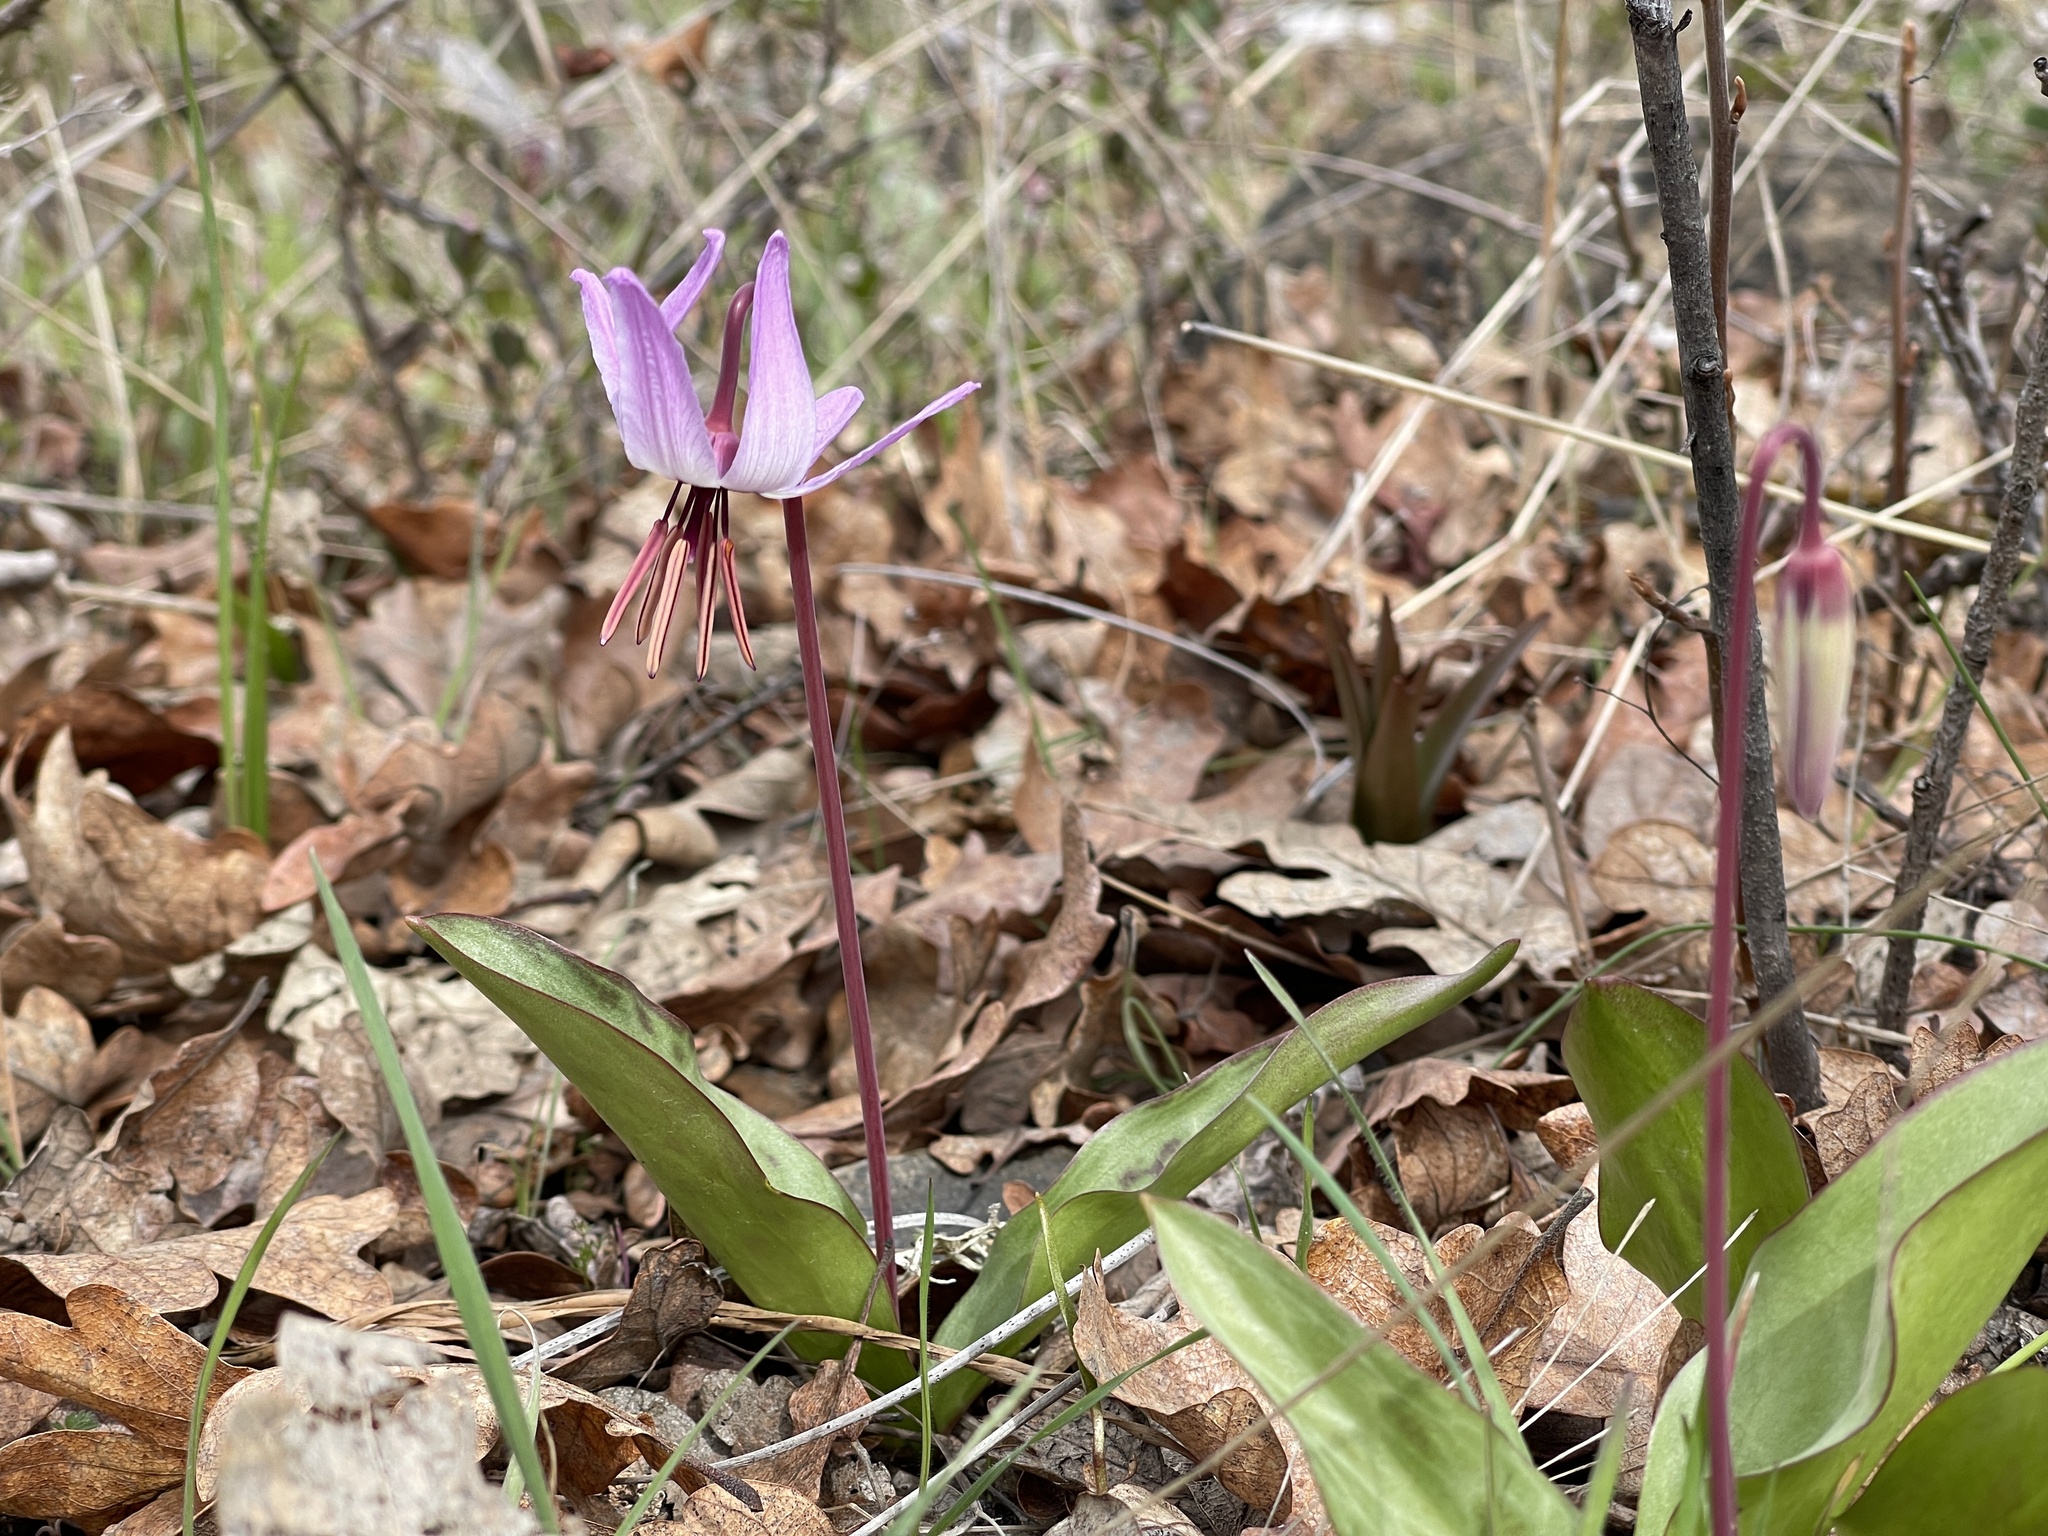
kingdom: Plantae
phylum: Tracheophyta
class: Liliopsida
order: Liliales
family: Liliaceae
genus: Erythronium
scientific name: Erythronium hendersonii
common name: Henderson's fawn-lily
